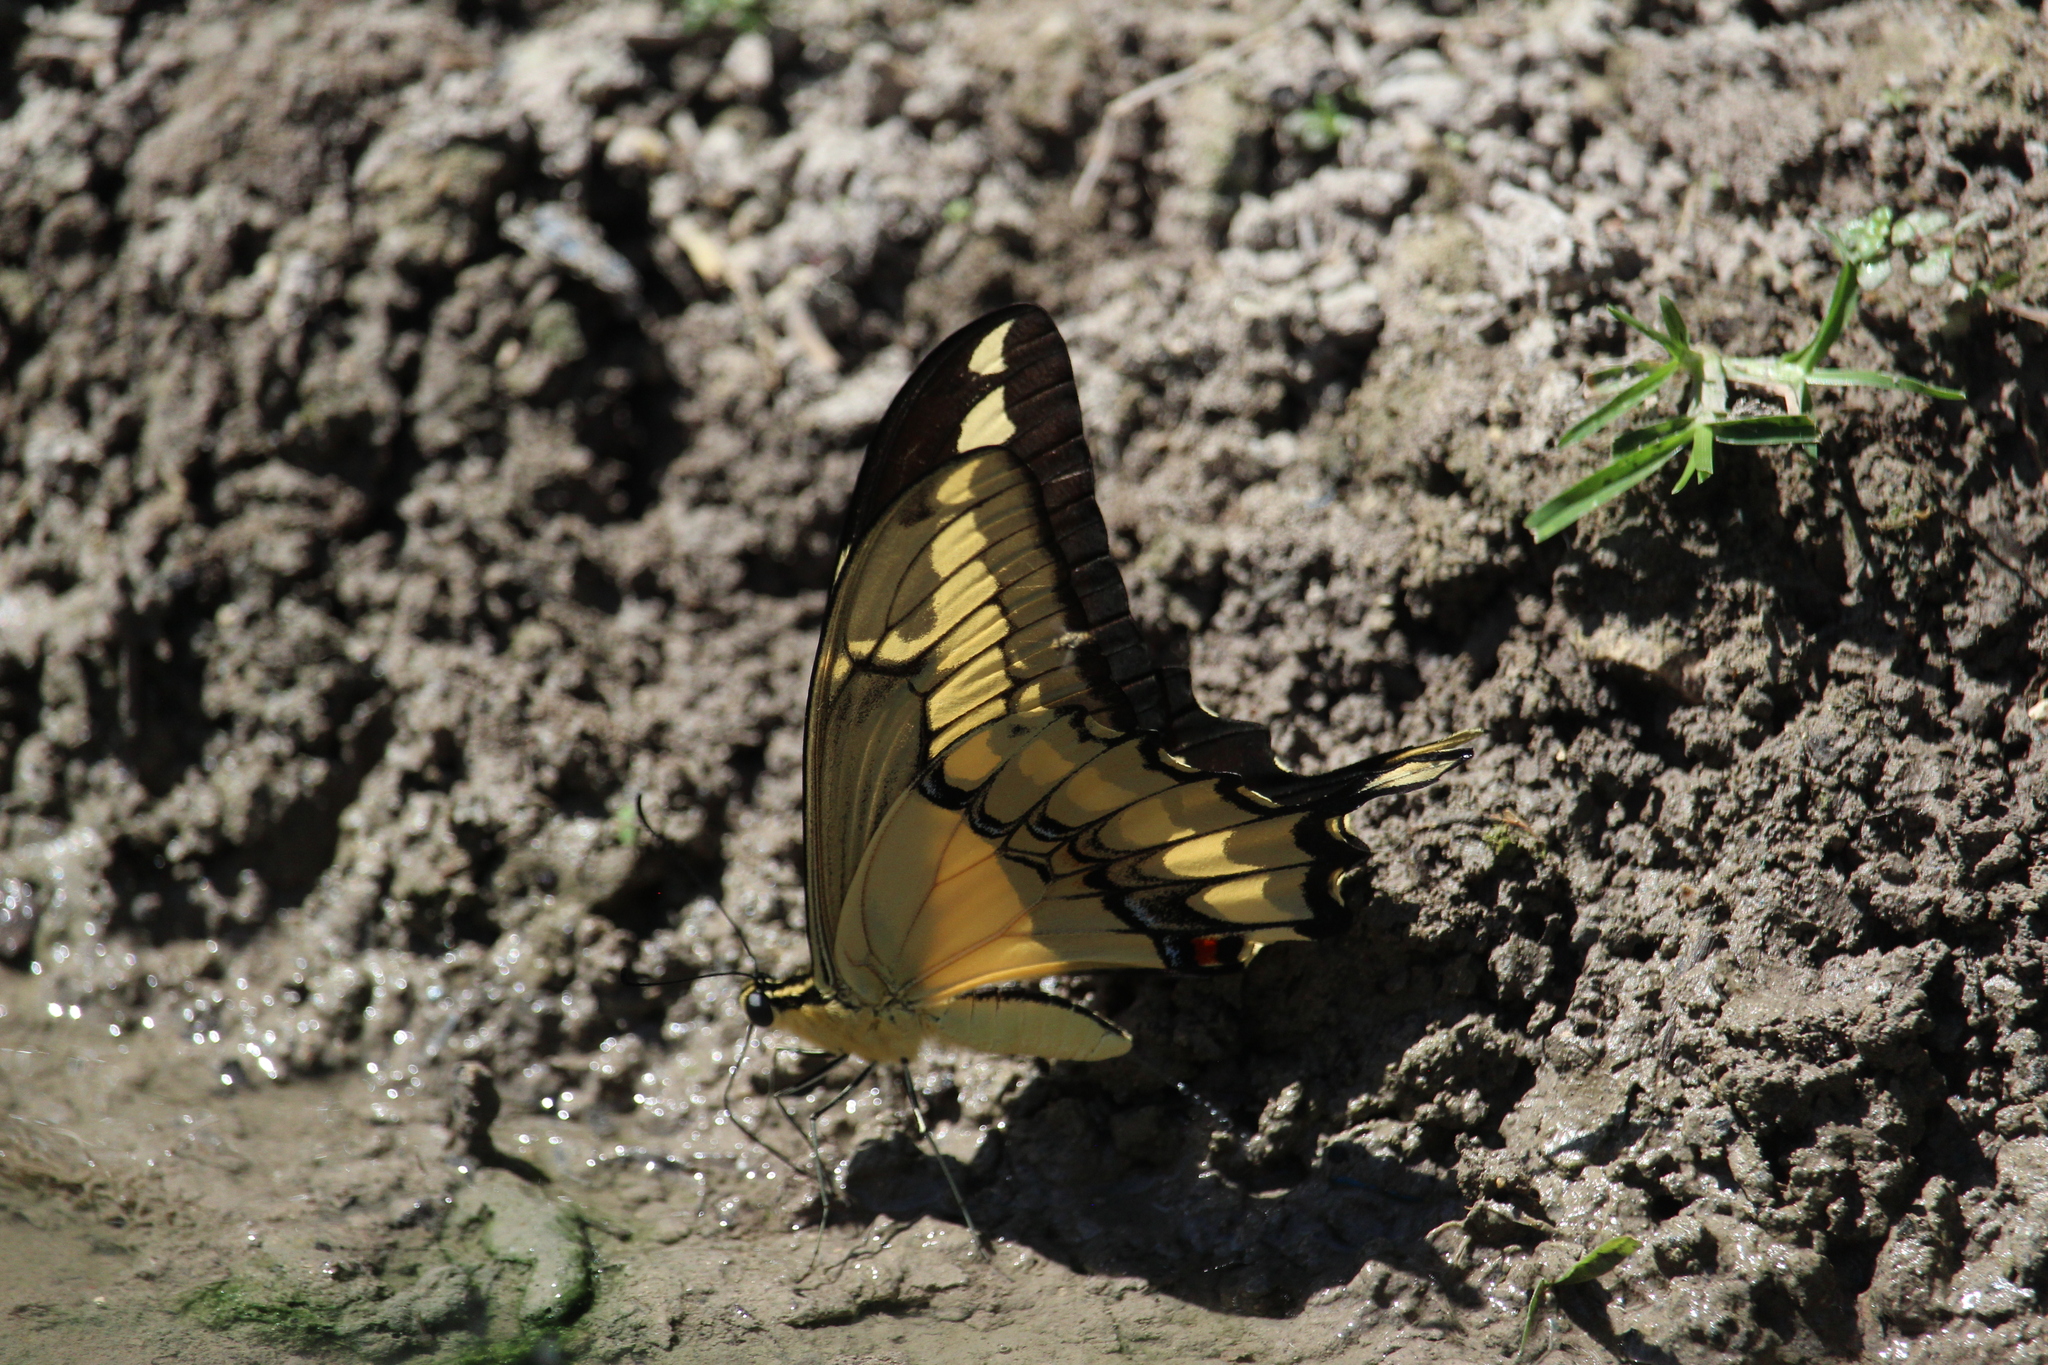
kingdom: Animalia
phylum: Arthropoda
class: Insecta
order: Lepidoptera
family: Papilionidae
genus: Papilio
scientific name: Papilio thoas
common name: King swallowtail
